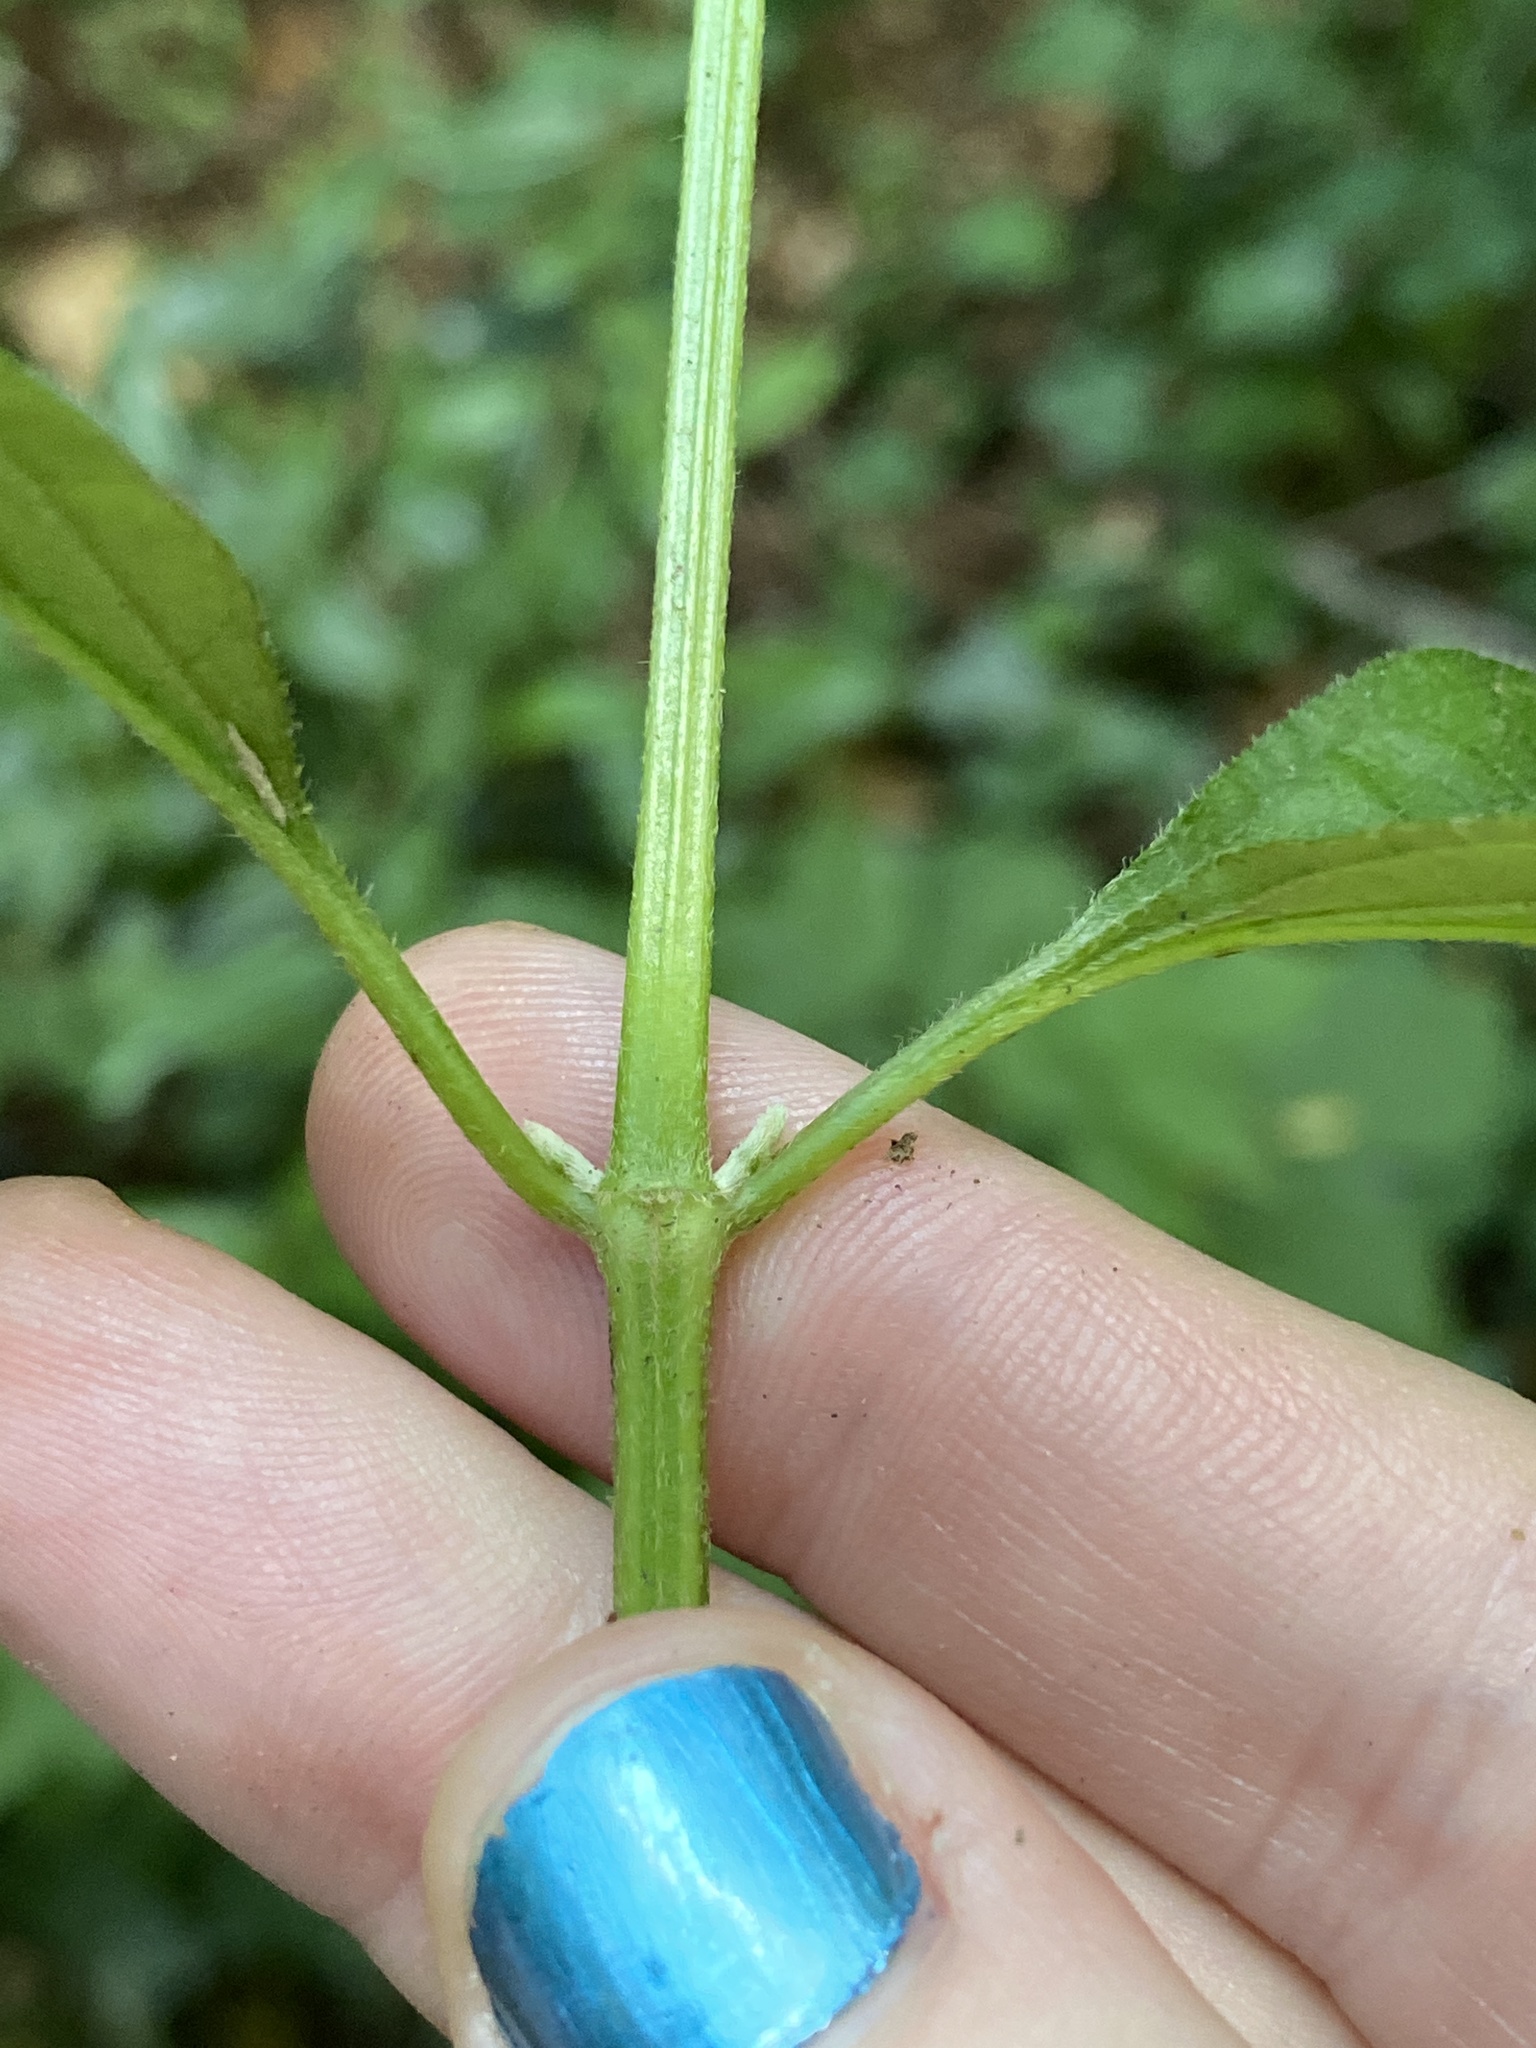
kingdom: Plantae
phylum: Tracheophyta
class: Magnoliopsida
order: Caryophyllales
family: Amaranthaceae
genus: Achyranthes
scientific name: Achyranthes bidentata
